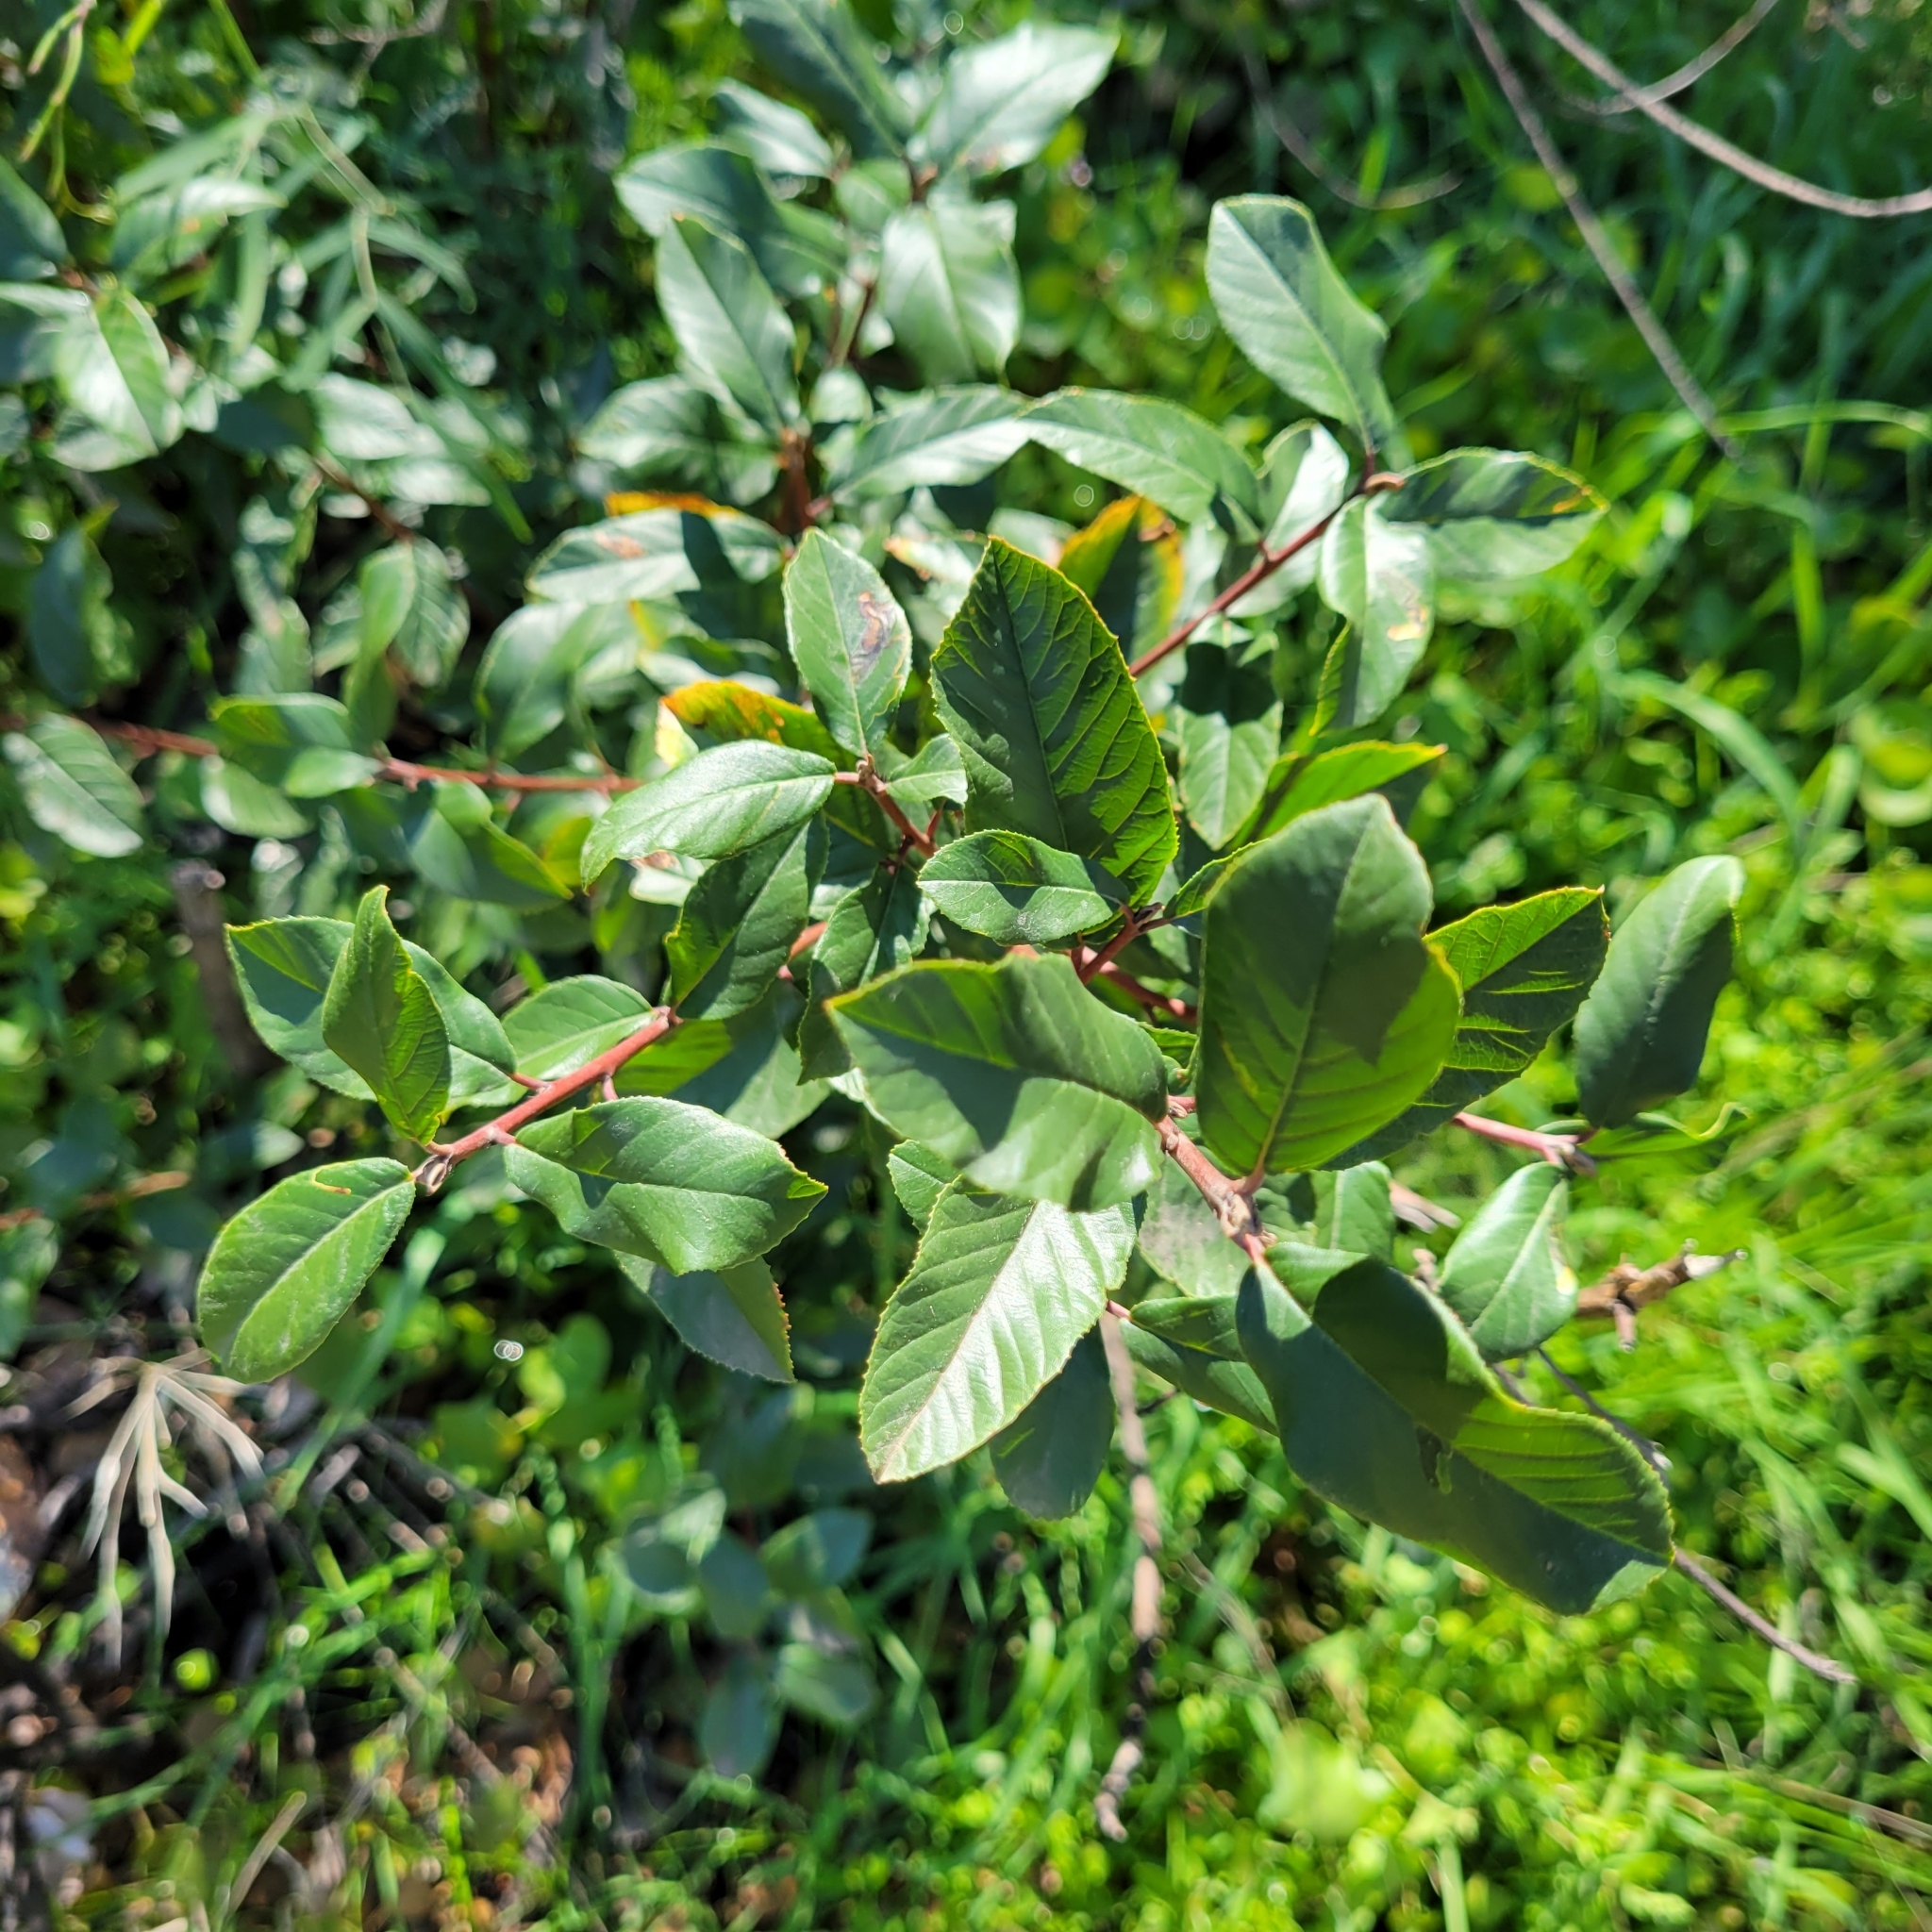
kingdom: Plantae
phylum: Tracheophyta
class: Magnoliopsida
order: Rosales
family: Rhamnaceae
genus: Frangula
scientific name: Frangula californica
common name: California buckthorn
